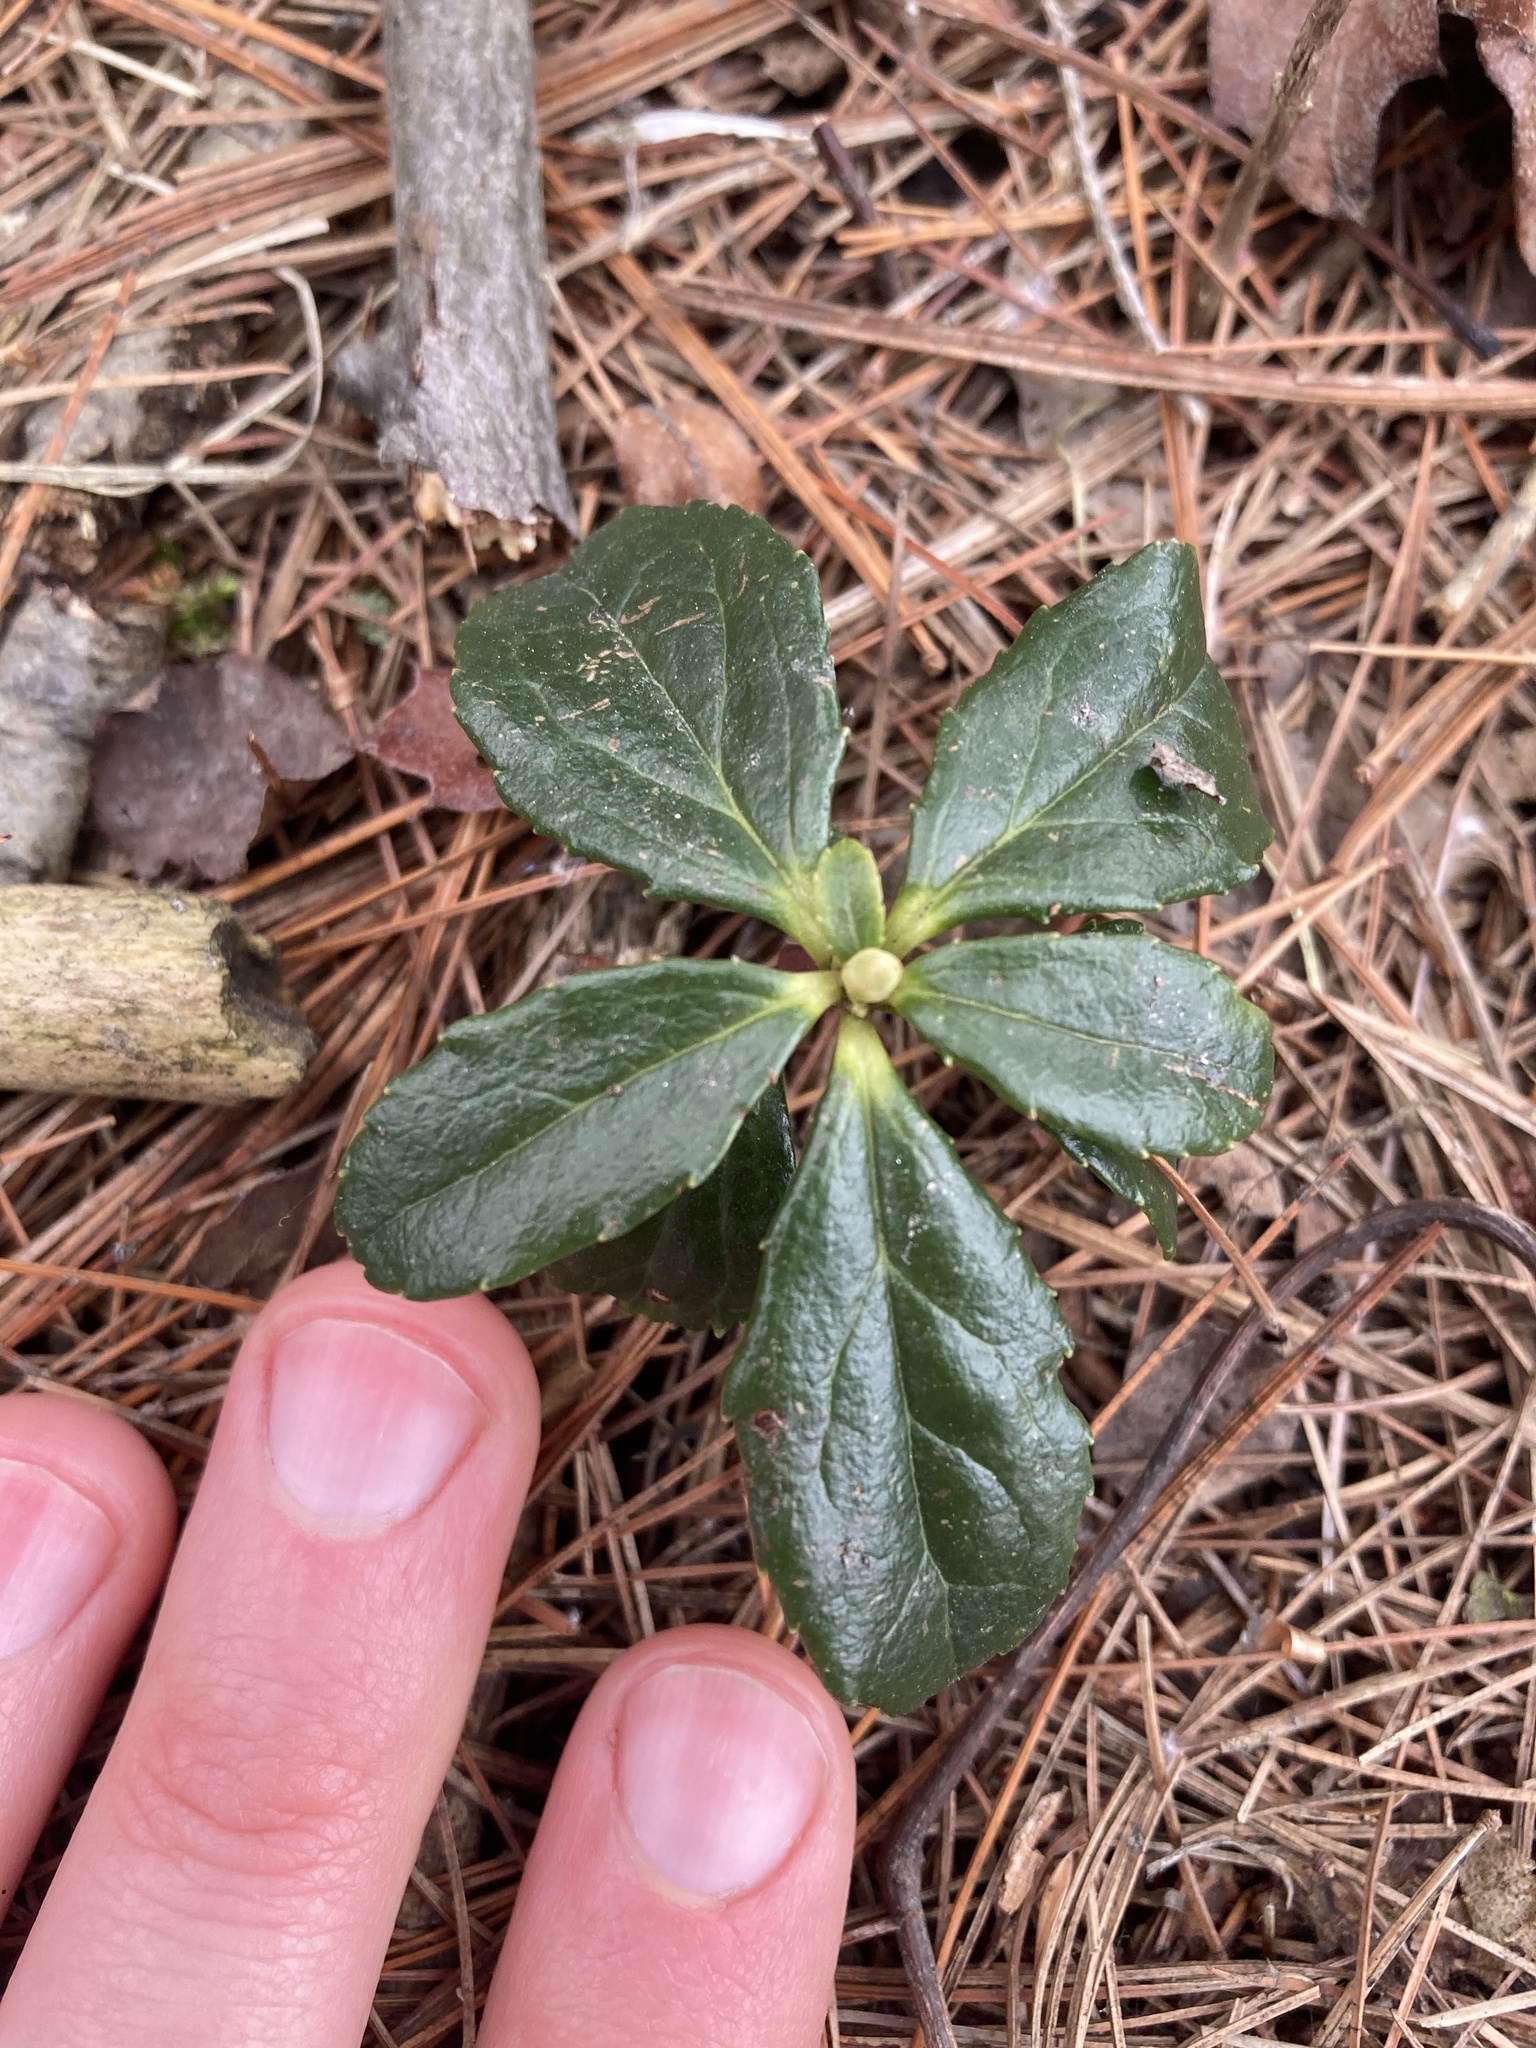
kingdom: Plantae
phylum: Tracheophyta
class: Magnoliopsida
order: Ericales
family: Ericaceae
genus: Chimaphila
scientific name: Chimaphila umbellata
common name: Pipsissewa
